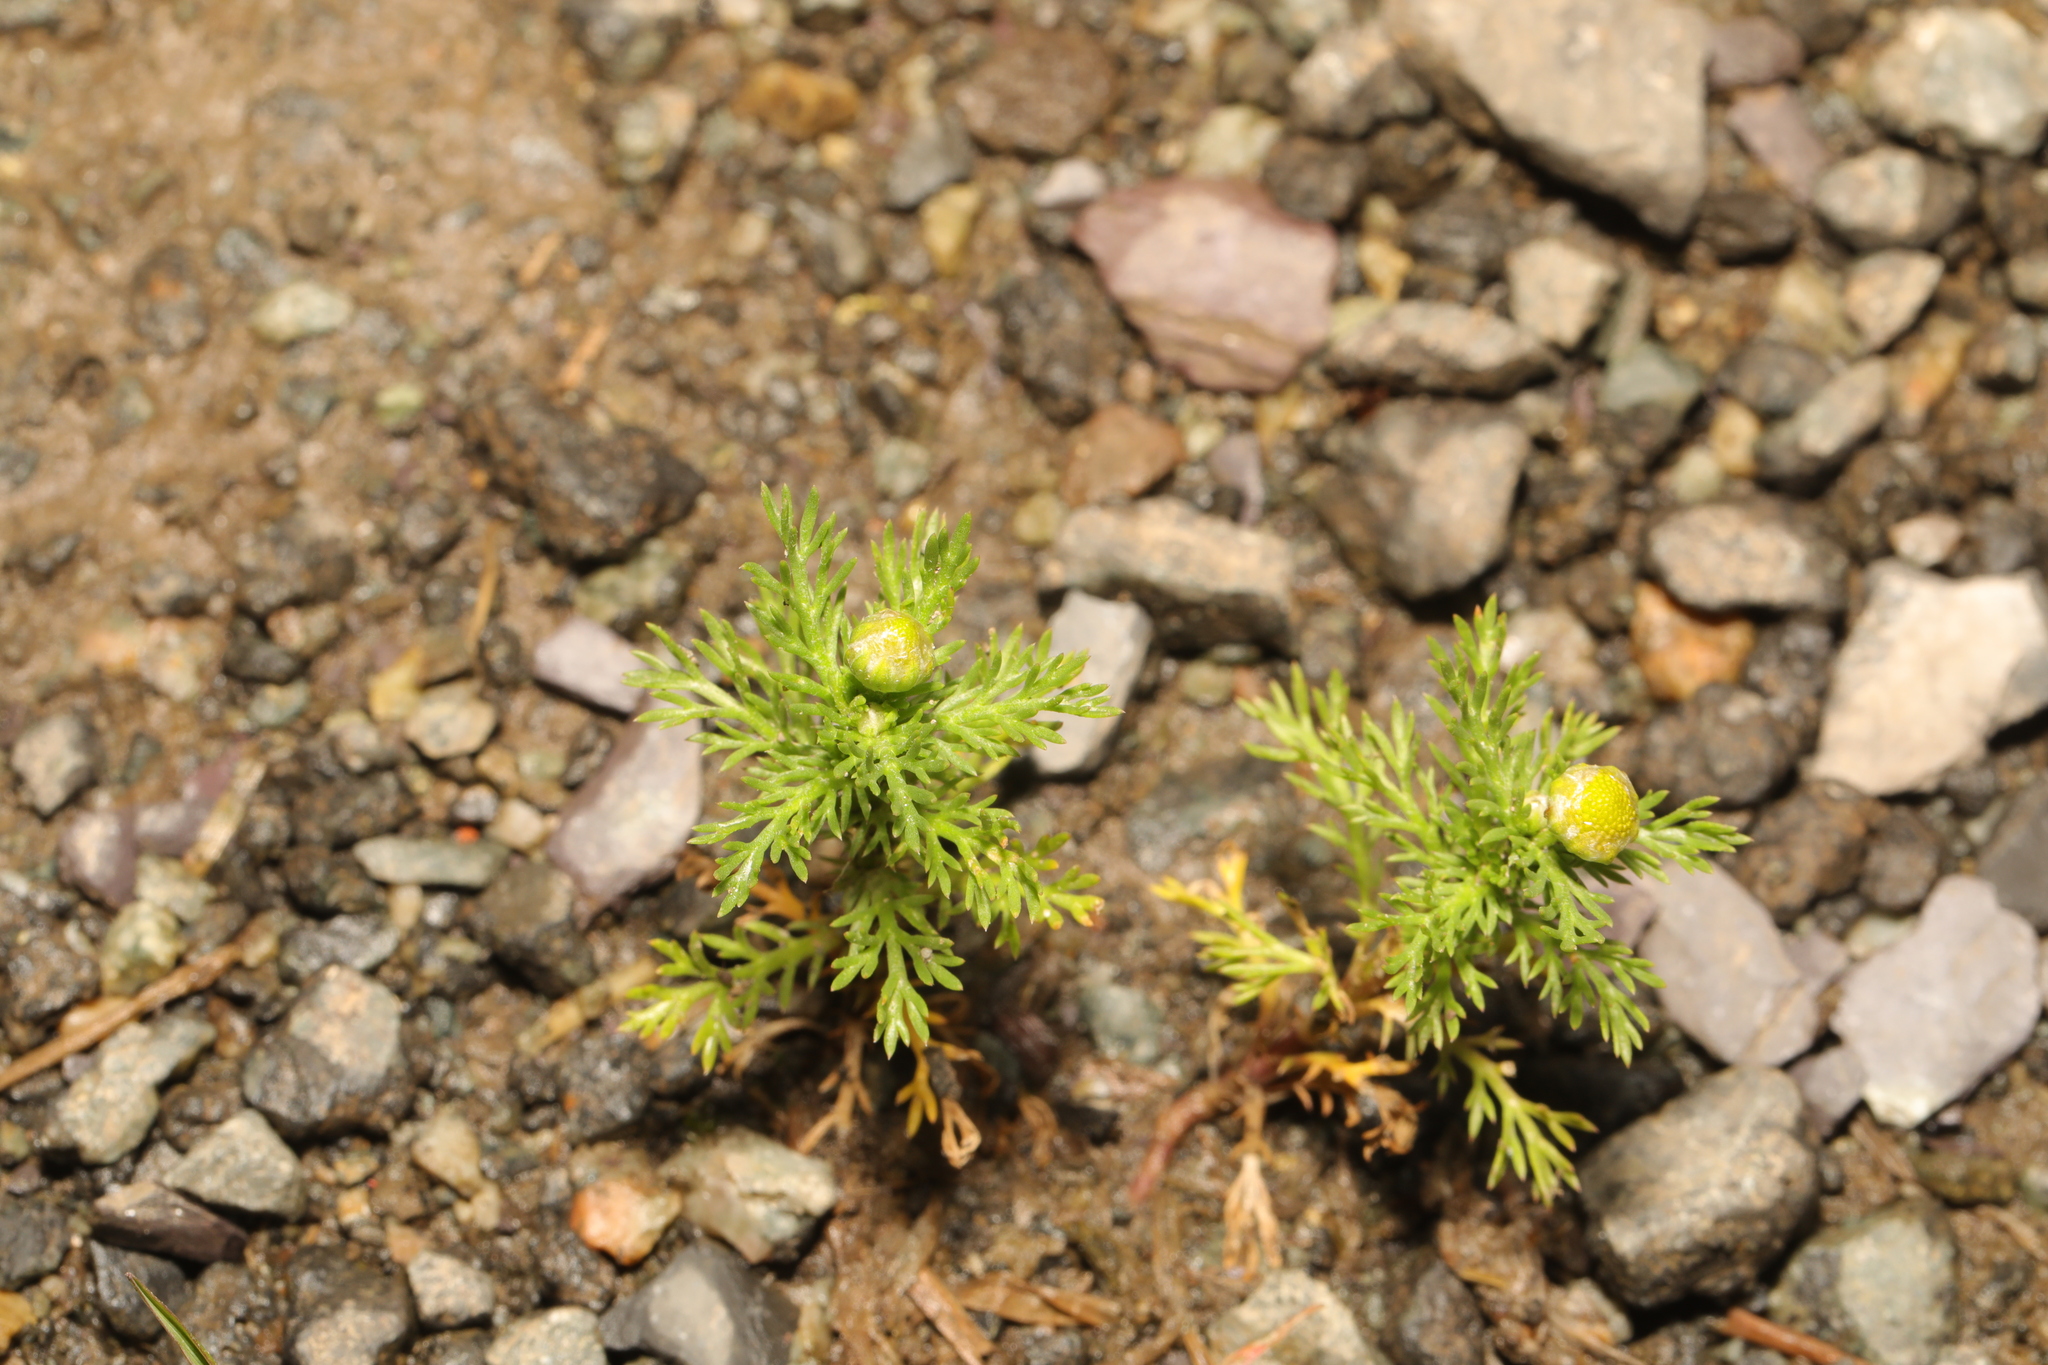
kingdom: Plantae
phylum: Tracheophyta
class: Magnoliopsida
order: Asterales
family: Asteraceae
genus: Matricaria
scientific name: Matricaria discoidea
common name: Disc mayweed
